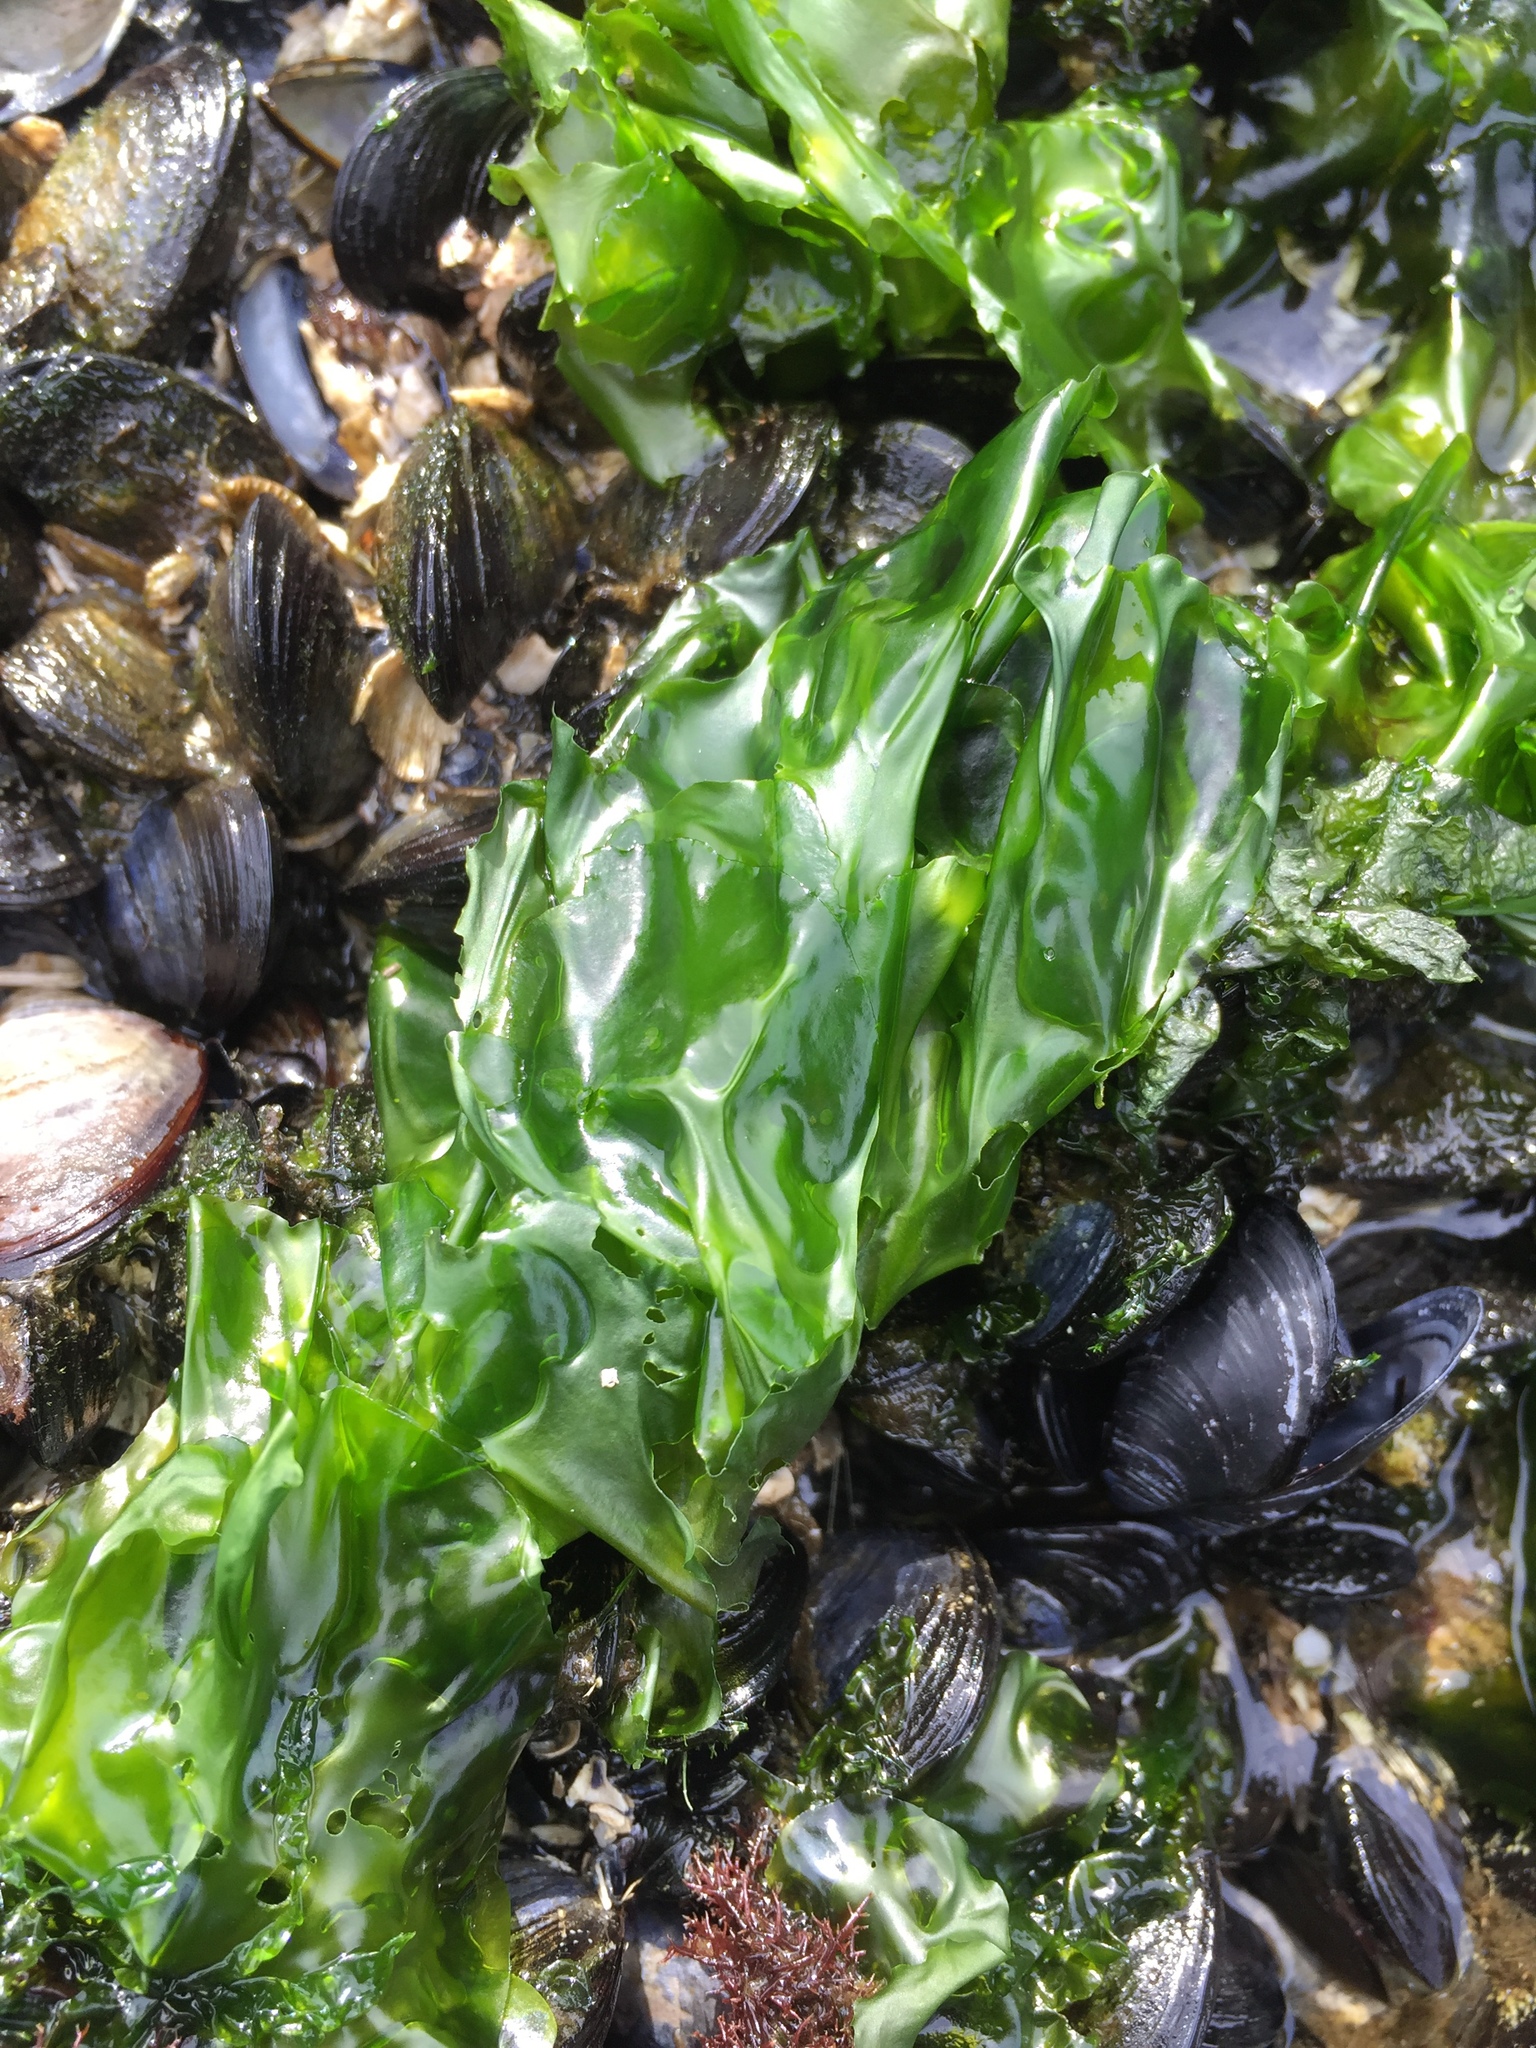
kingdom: Plantae
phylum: Chlorophyta
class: Ulvophyceae
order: Ulvales
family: Ulvaceae
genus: Ulva
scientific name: Ulva lactuca
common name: Sea lettuce
